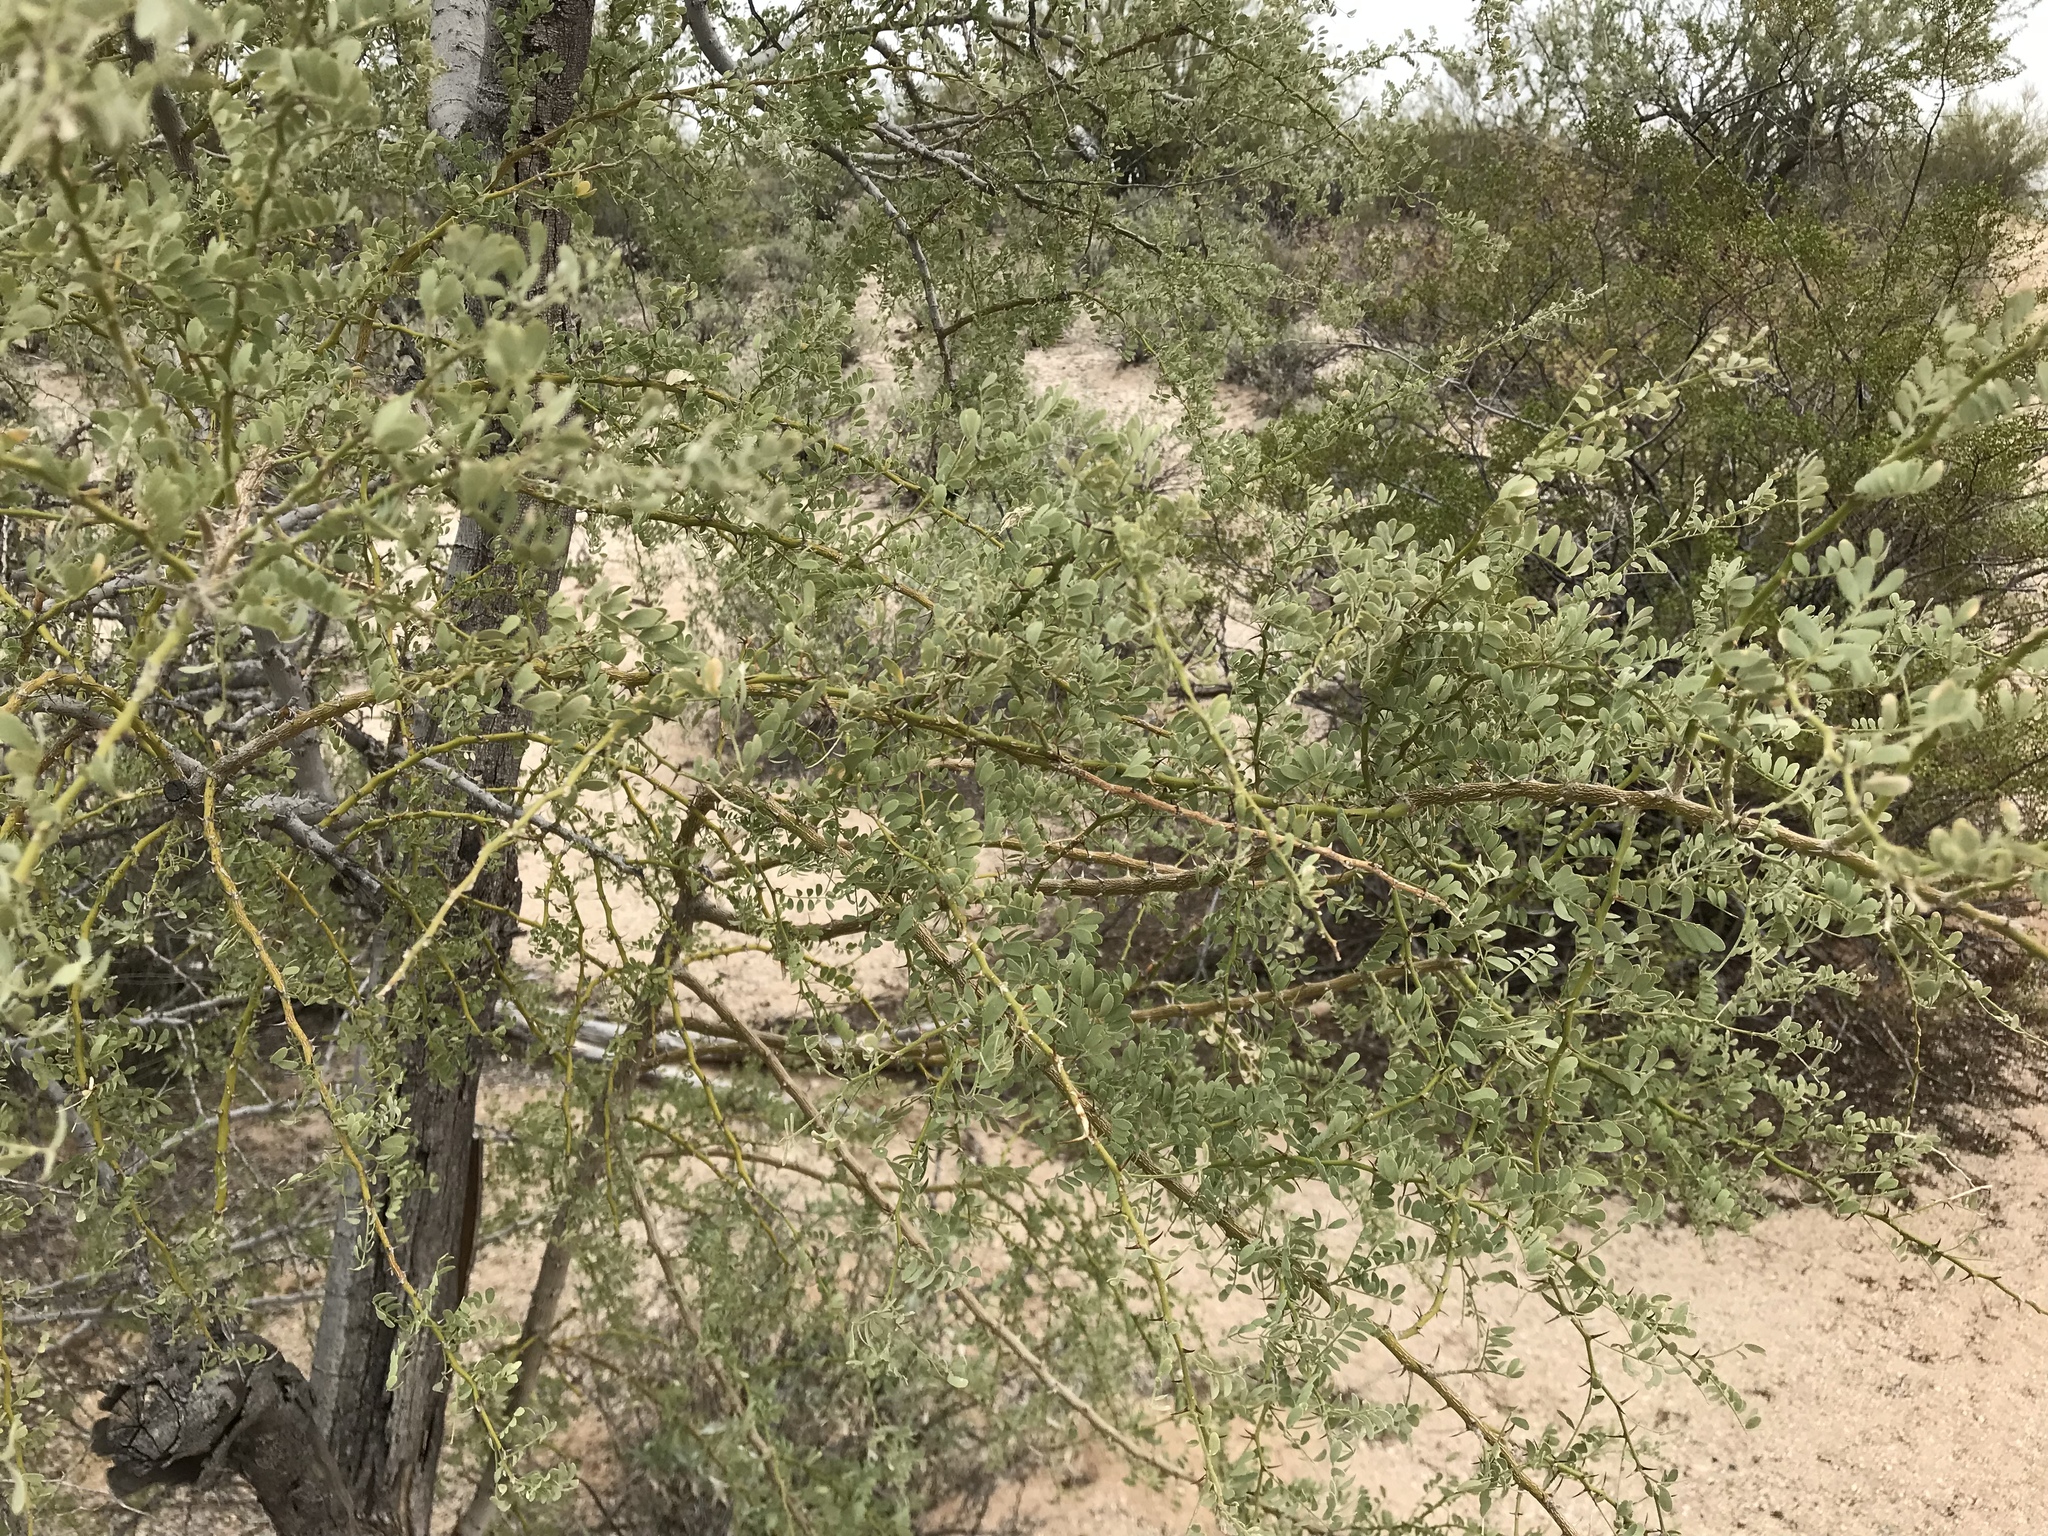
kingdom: Plantae
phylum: Tracheophyta
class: Magnoliopsida
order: Fabales
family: Fabaceae
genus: Olneya
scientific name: Olneya tesota
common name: Desert ironwood
